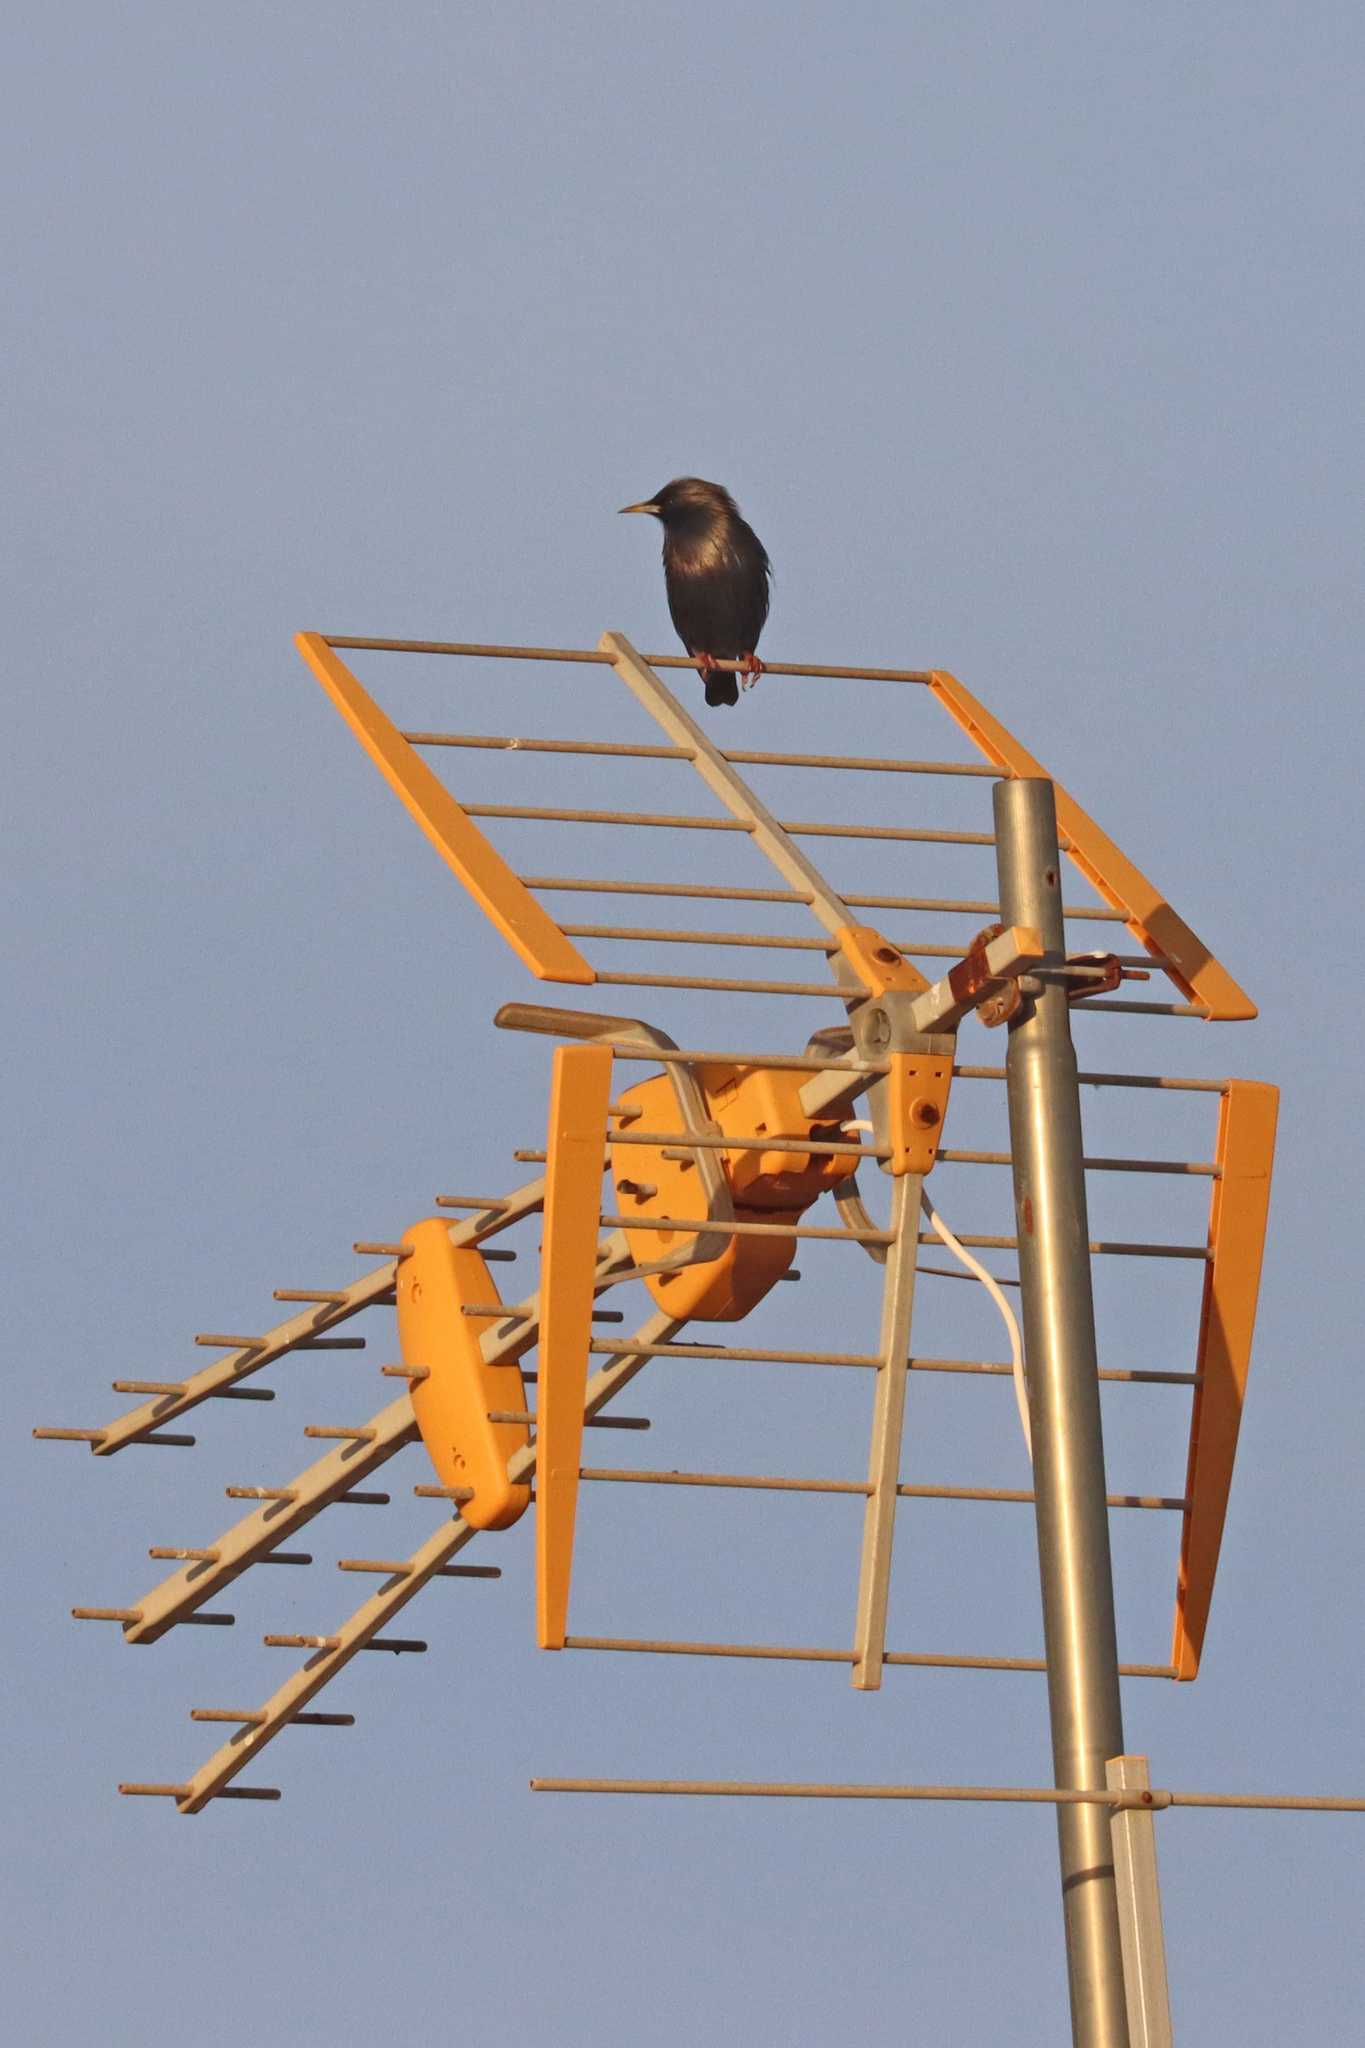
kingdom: Animalia
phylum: Chordata
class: Aves
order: Passeriformes
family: Sturnidae
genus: Sturnus
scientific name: Sturnus unicolor
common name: Spotless starling
